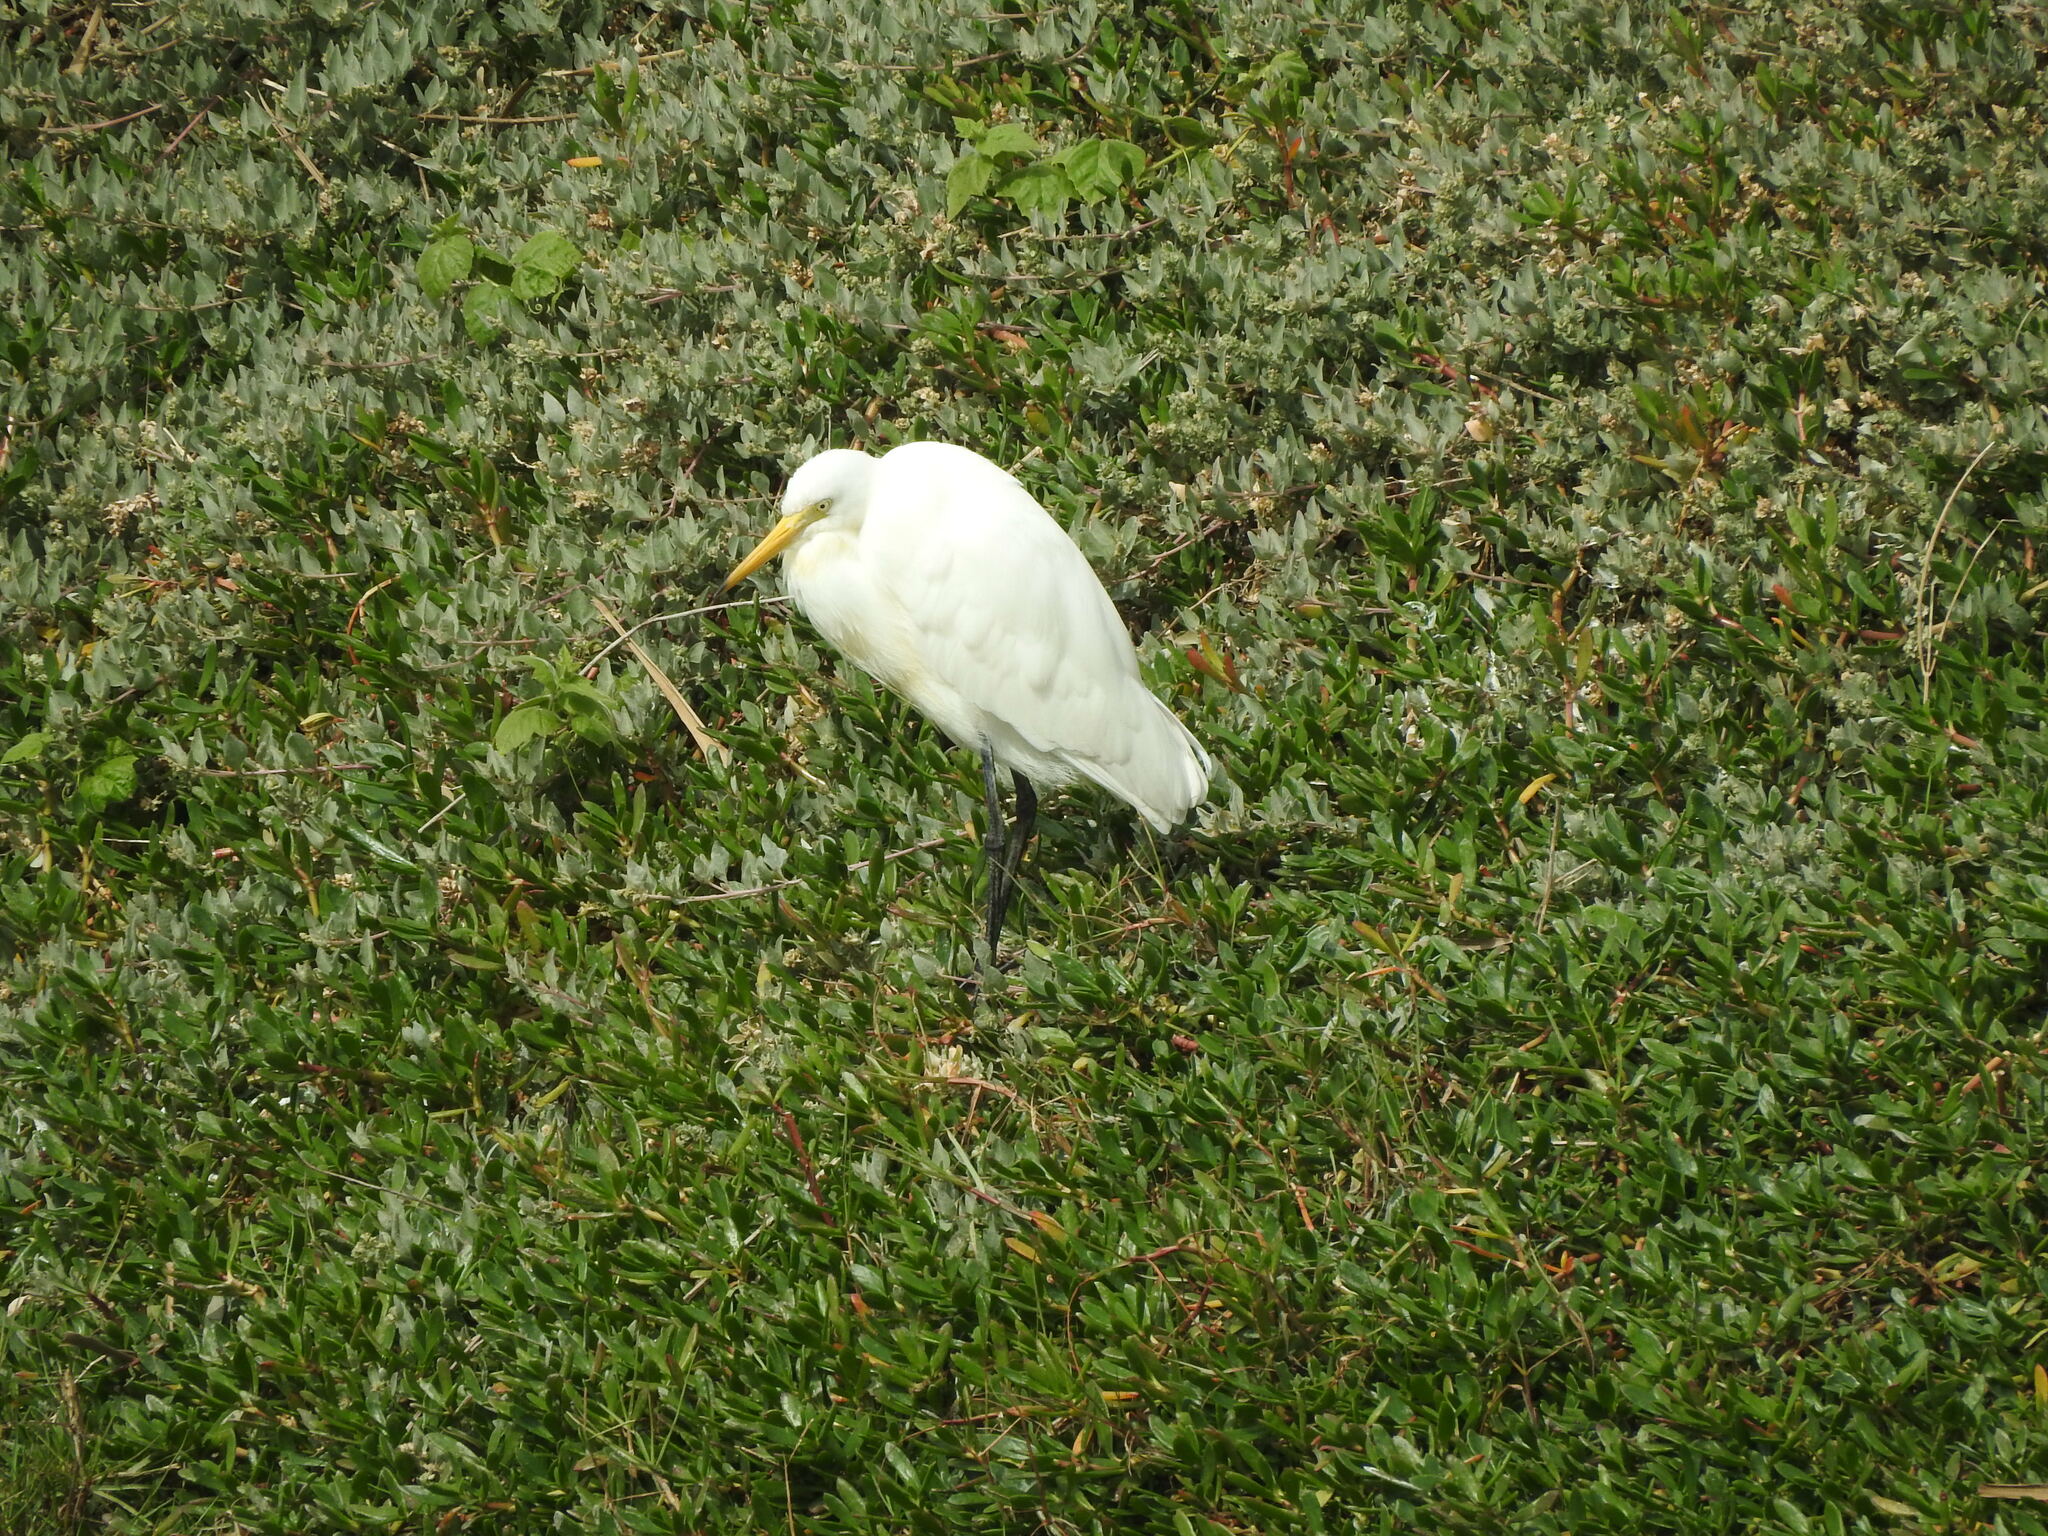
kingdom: Animalia
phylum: Chordata
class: Aves
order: Pelecaniformes
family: Ardeidae
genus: Egretta
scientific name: Egretta intermedia
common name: Intermediate egret
